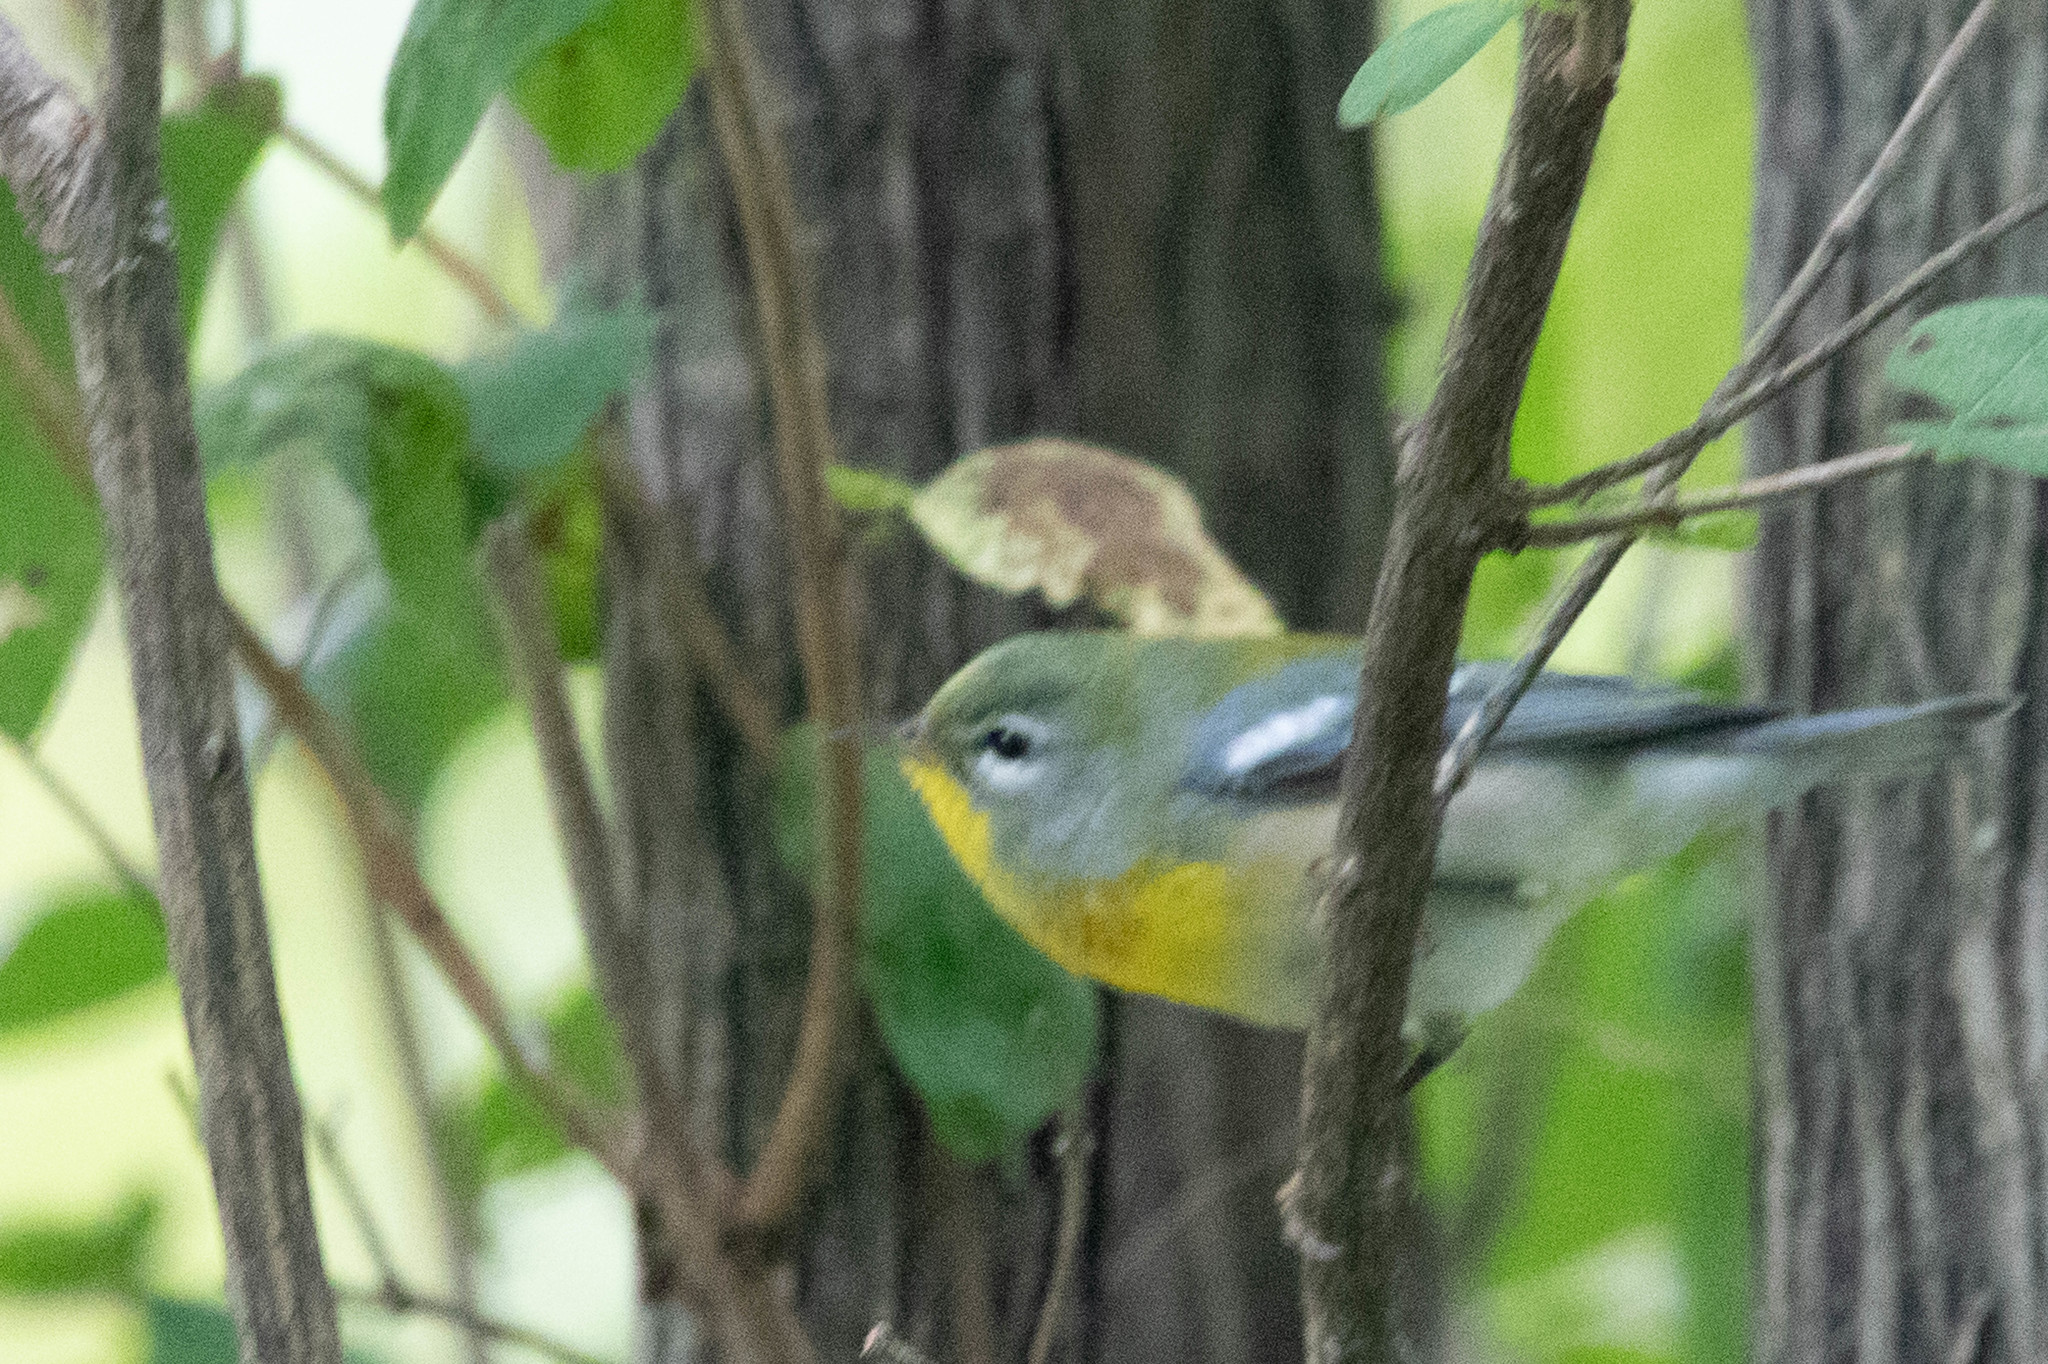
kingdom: Animalia
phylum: Chordata
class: Aves
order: Passeriformes
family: Parulidae
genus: Setophaga
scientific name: Setophaga americana
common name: Northern parula
